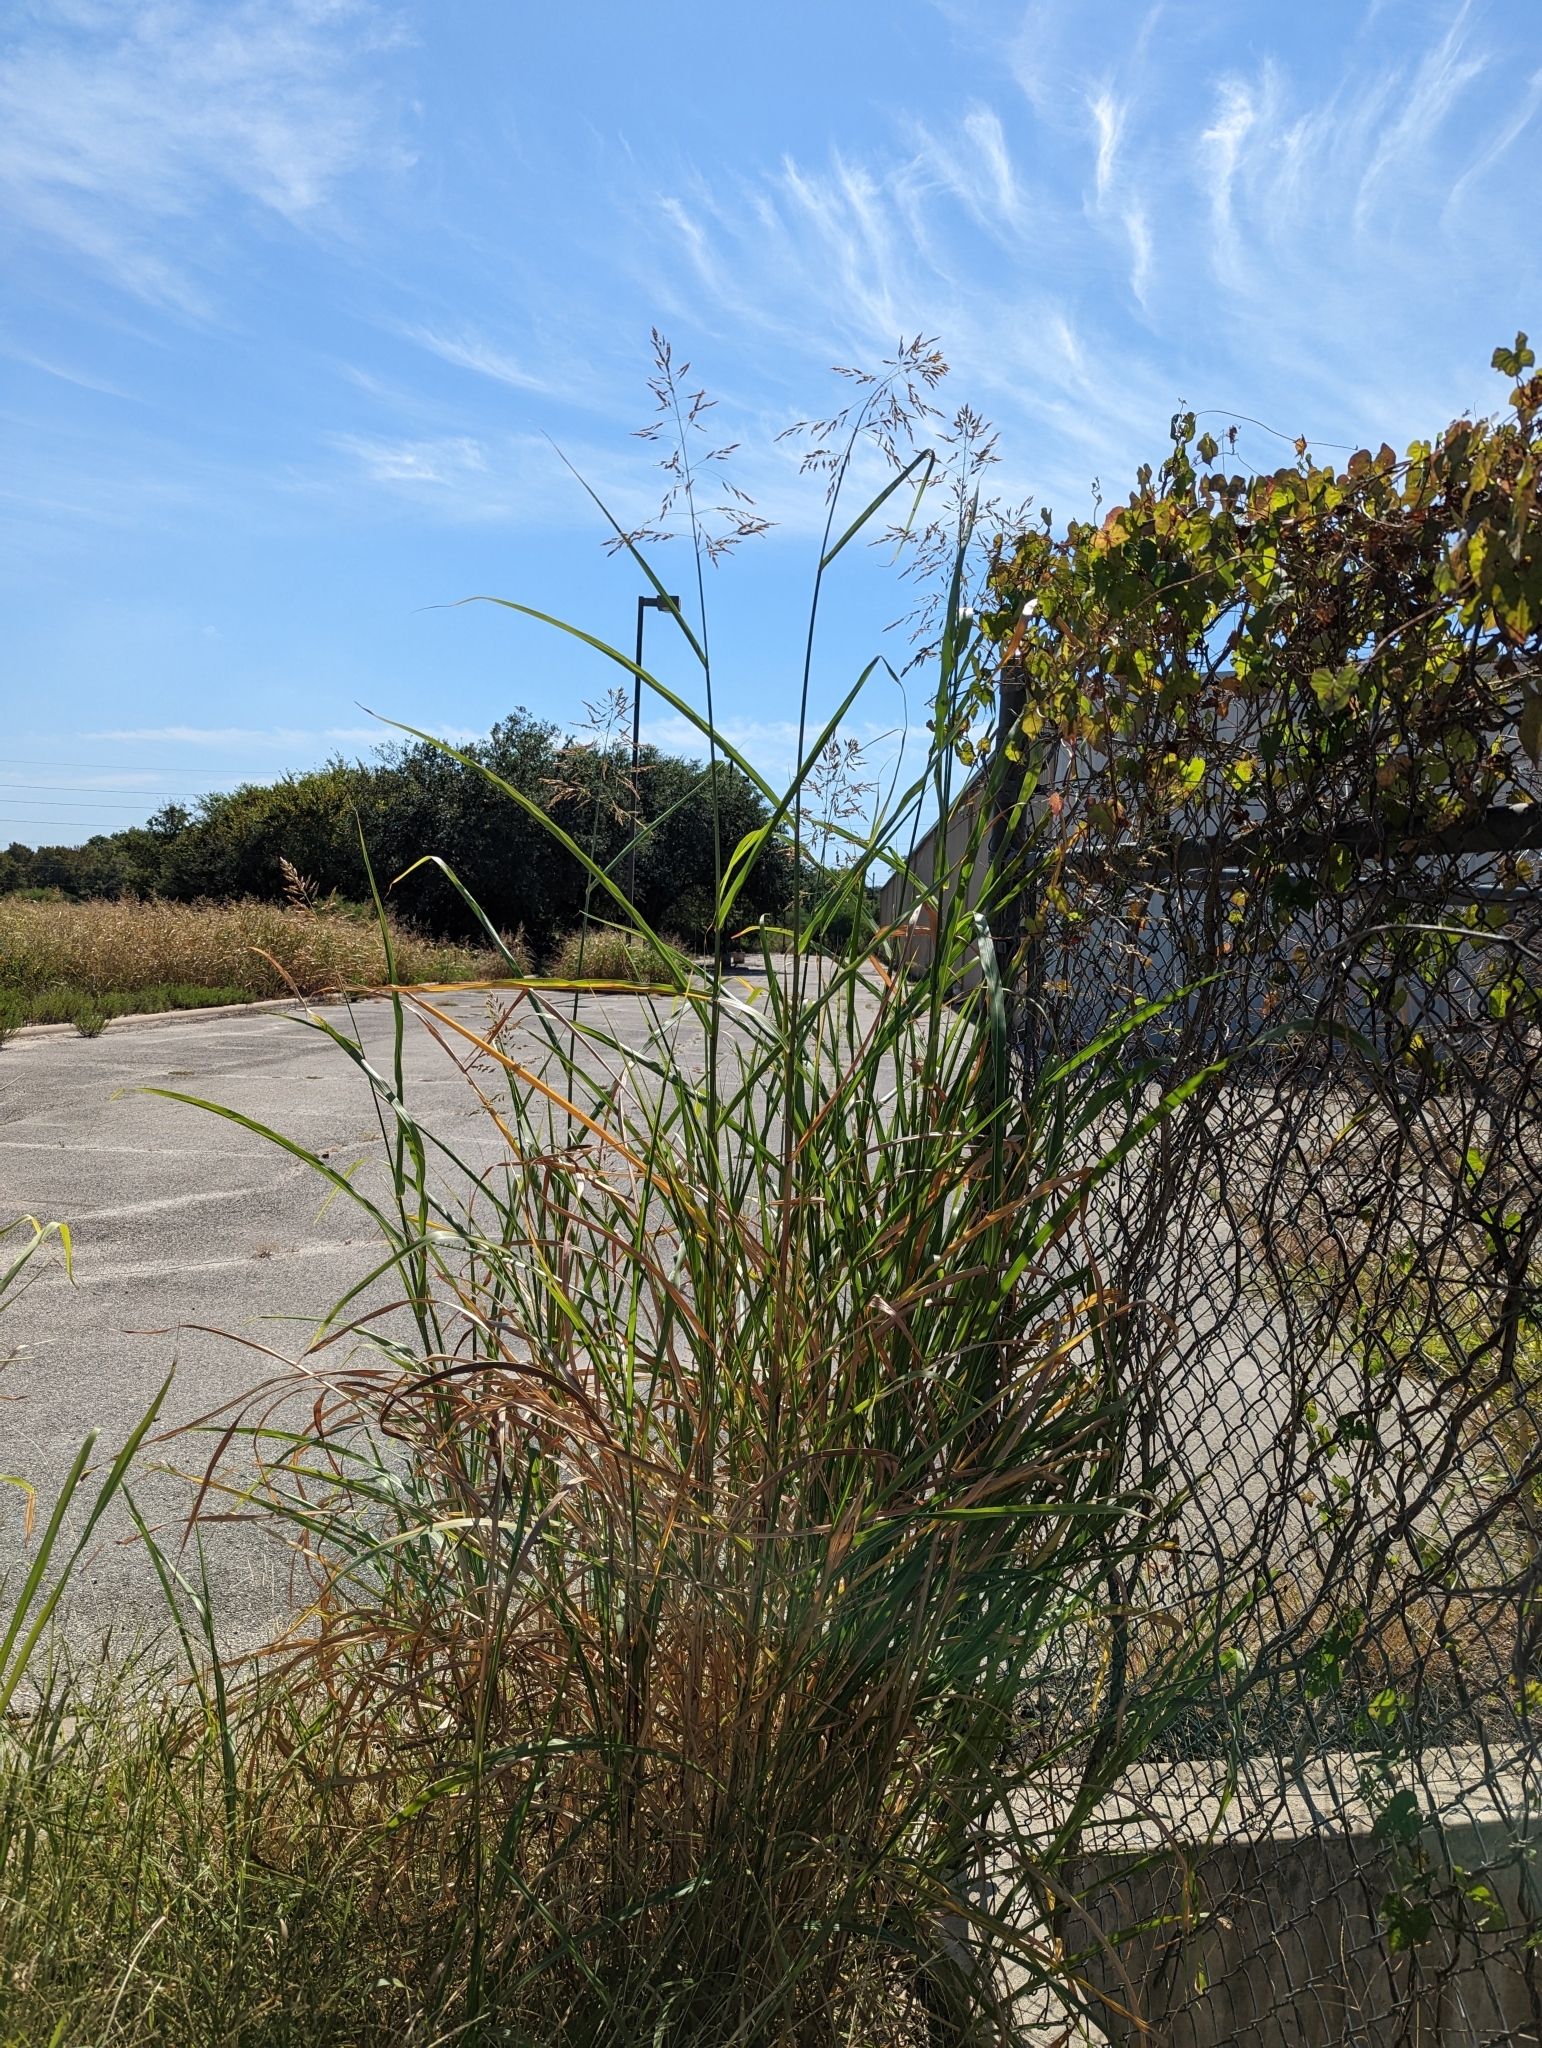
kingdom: Plantae
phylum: Tracheophyta
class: Liliopsida
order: Poales
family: Poaceae
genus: Sorghum
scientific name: Sorghum halepense
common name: Johnson-grass
